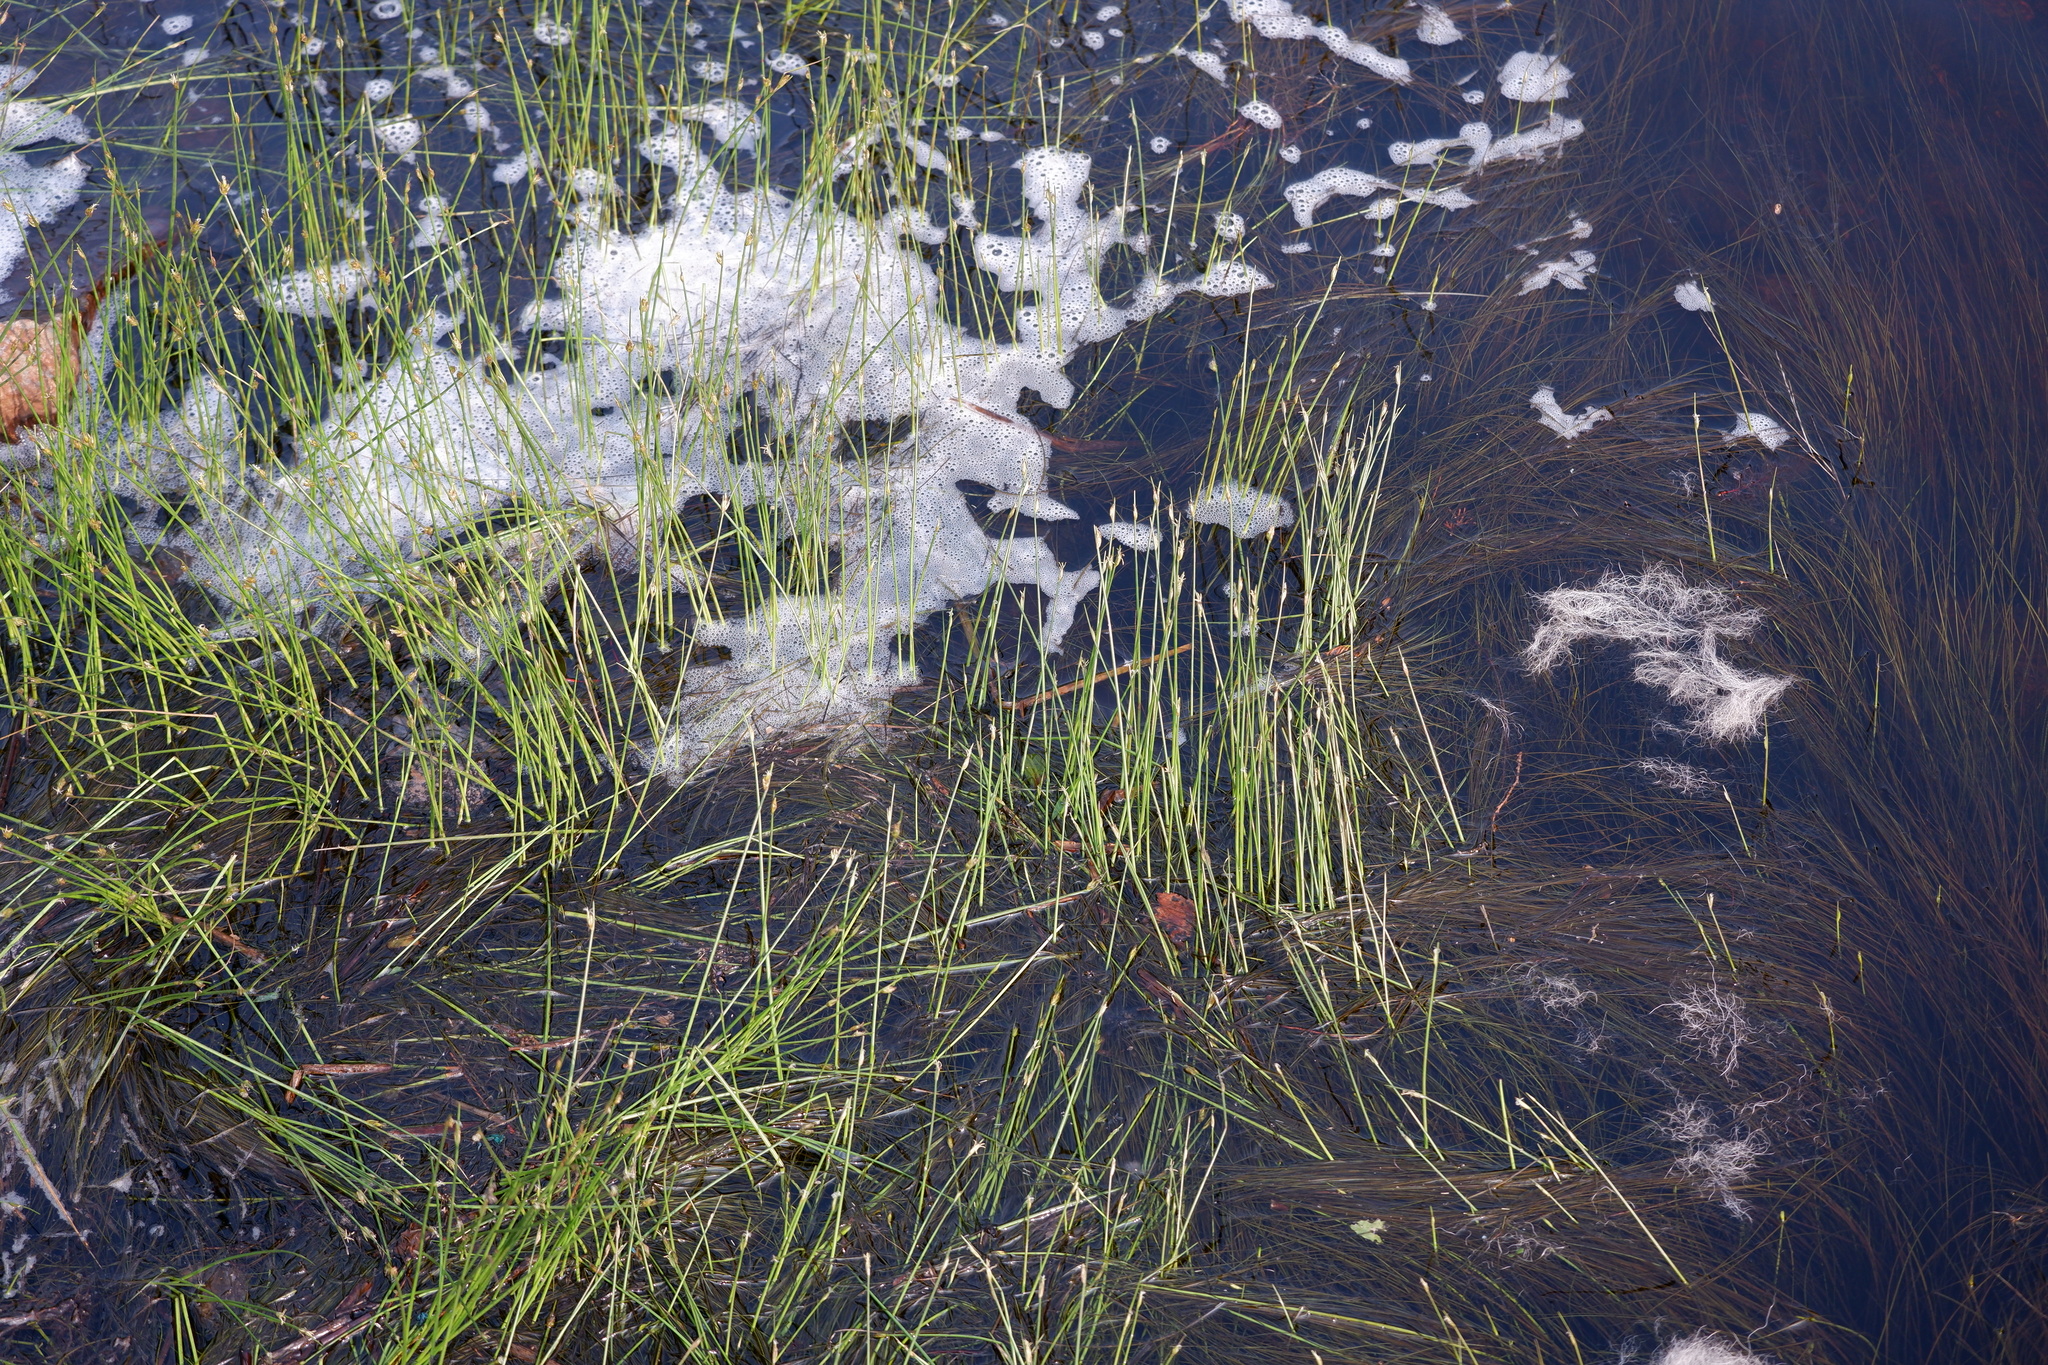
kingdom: Plantae
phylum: Tracheophyta
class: Liliopsida
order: Poales
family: Cyperaceae
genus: Schoenoplectus
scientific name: Schoenoplectus subterminalis
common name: Swaying bulrush
